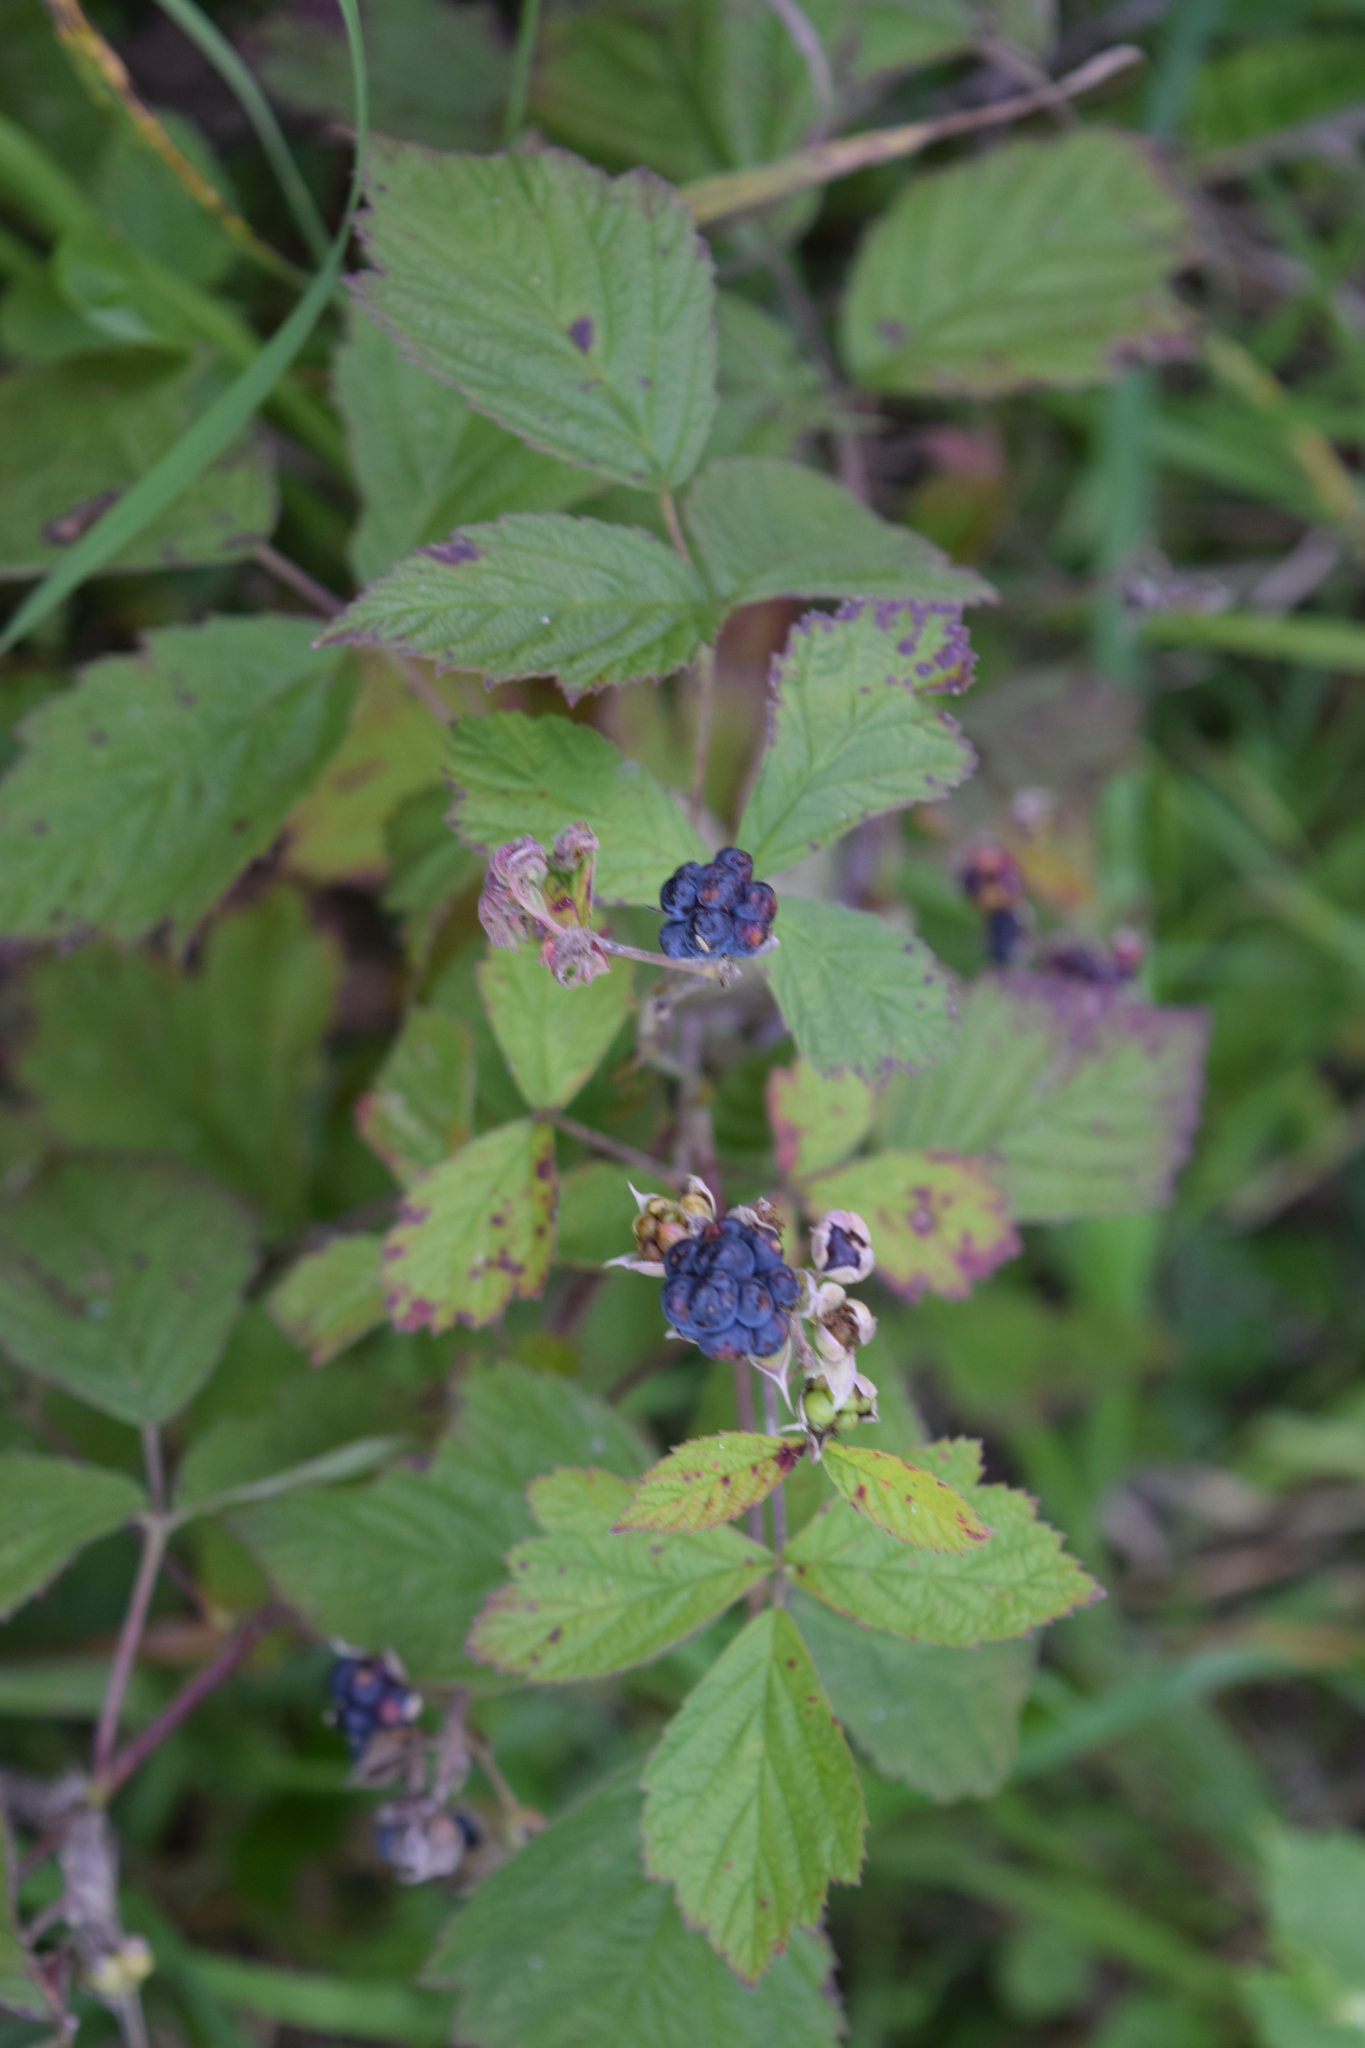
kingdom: Plantae
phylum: Tracheophyta
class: Magnoliopsida
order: Rosales
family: Rosaceae
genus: Rubus
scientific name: Rubus caesius
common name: Dewberry
